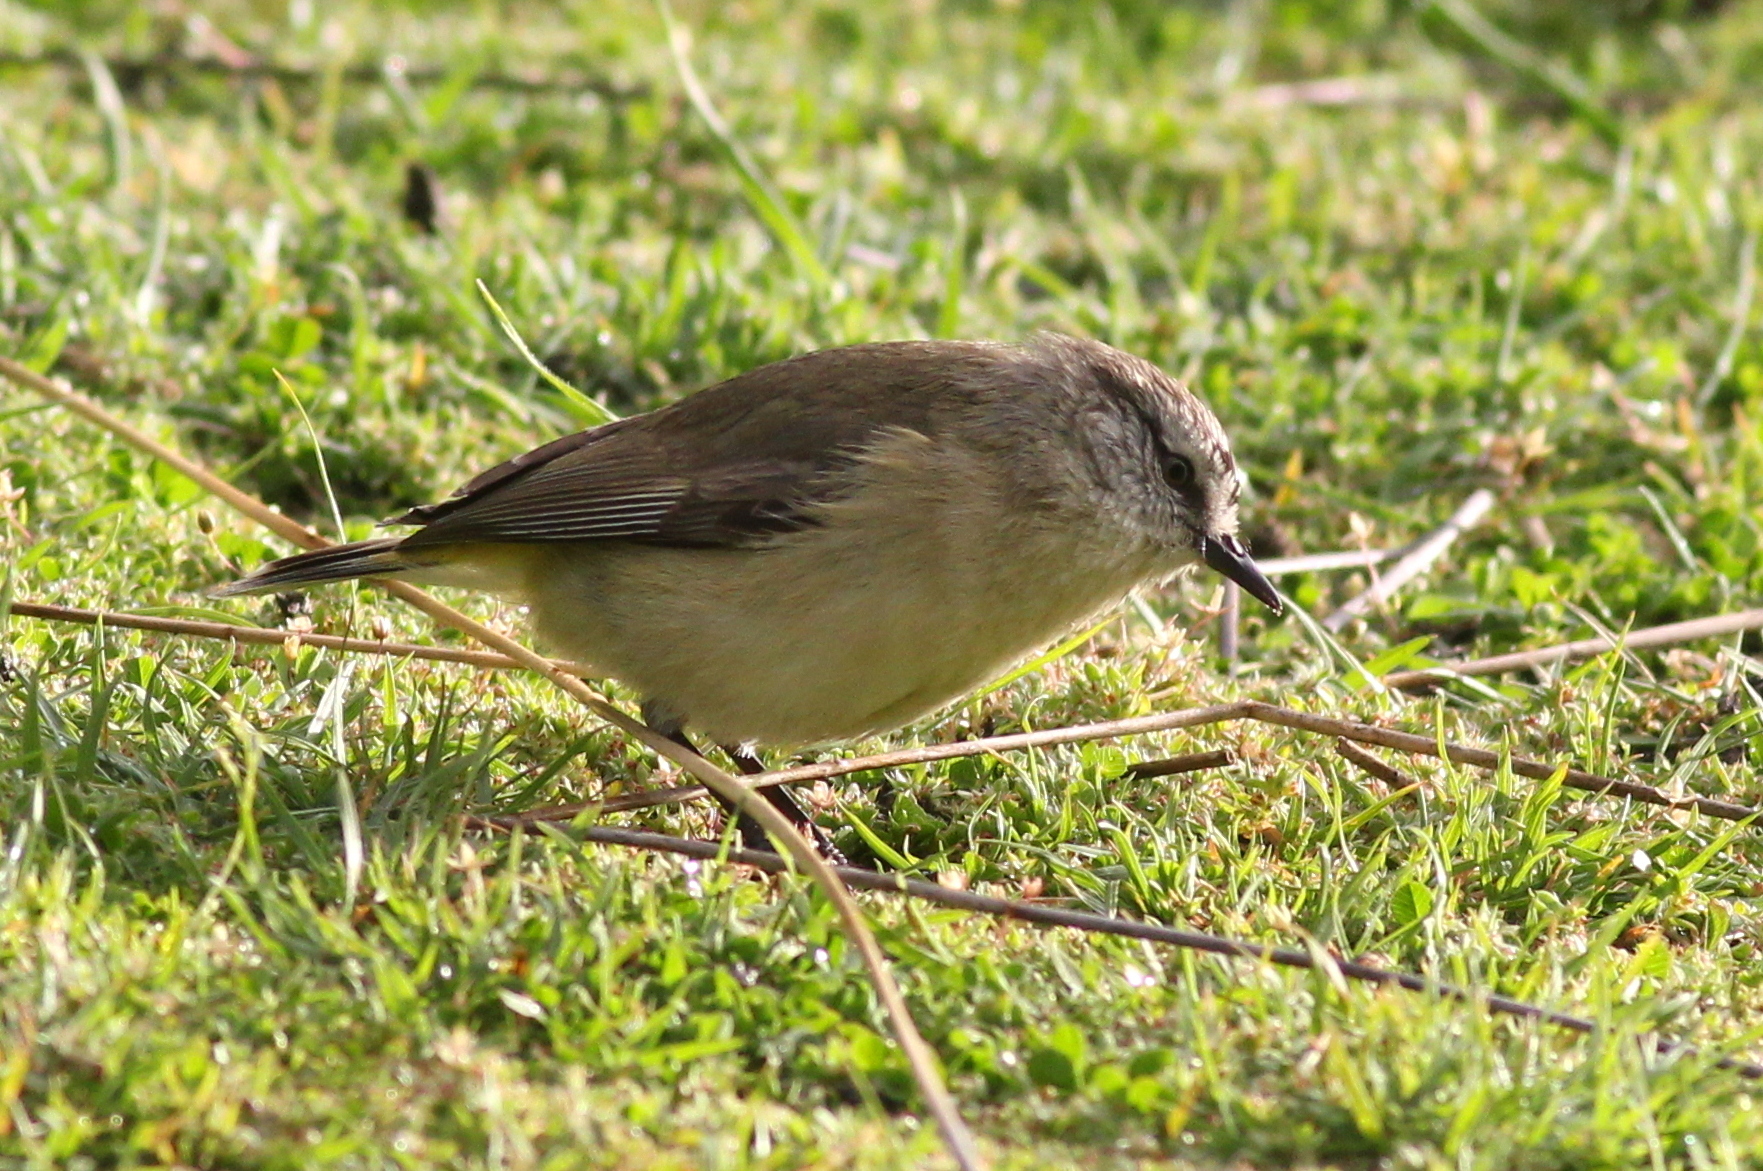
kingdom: Animalia
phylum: Chordata
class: Aves
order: Passeriformes
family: Acanthizidae
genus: Acanthiza
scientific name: Acanthiza chrysorrhoa
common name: Yellow-rumped thornbill
